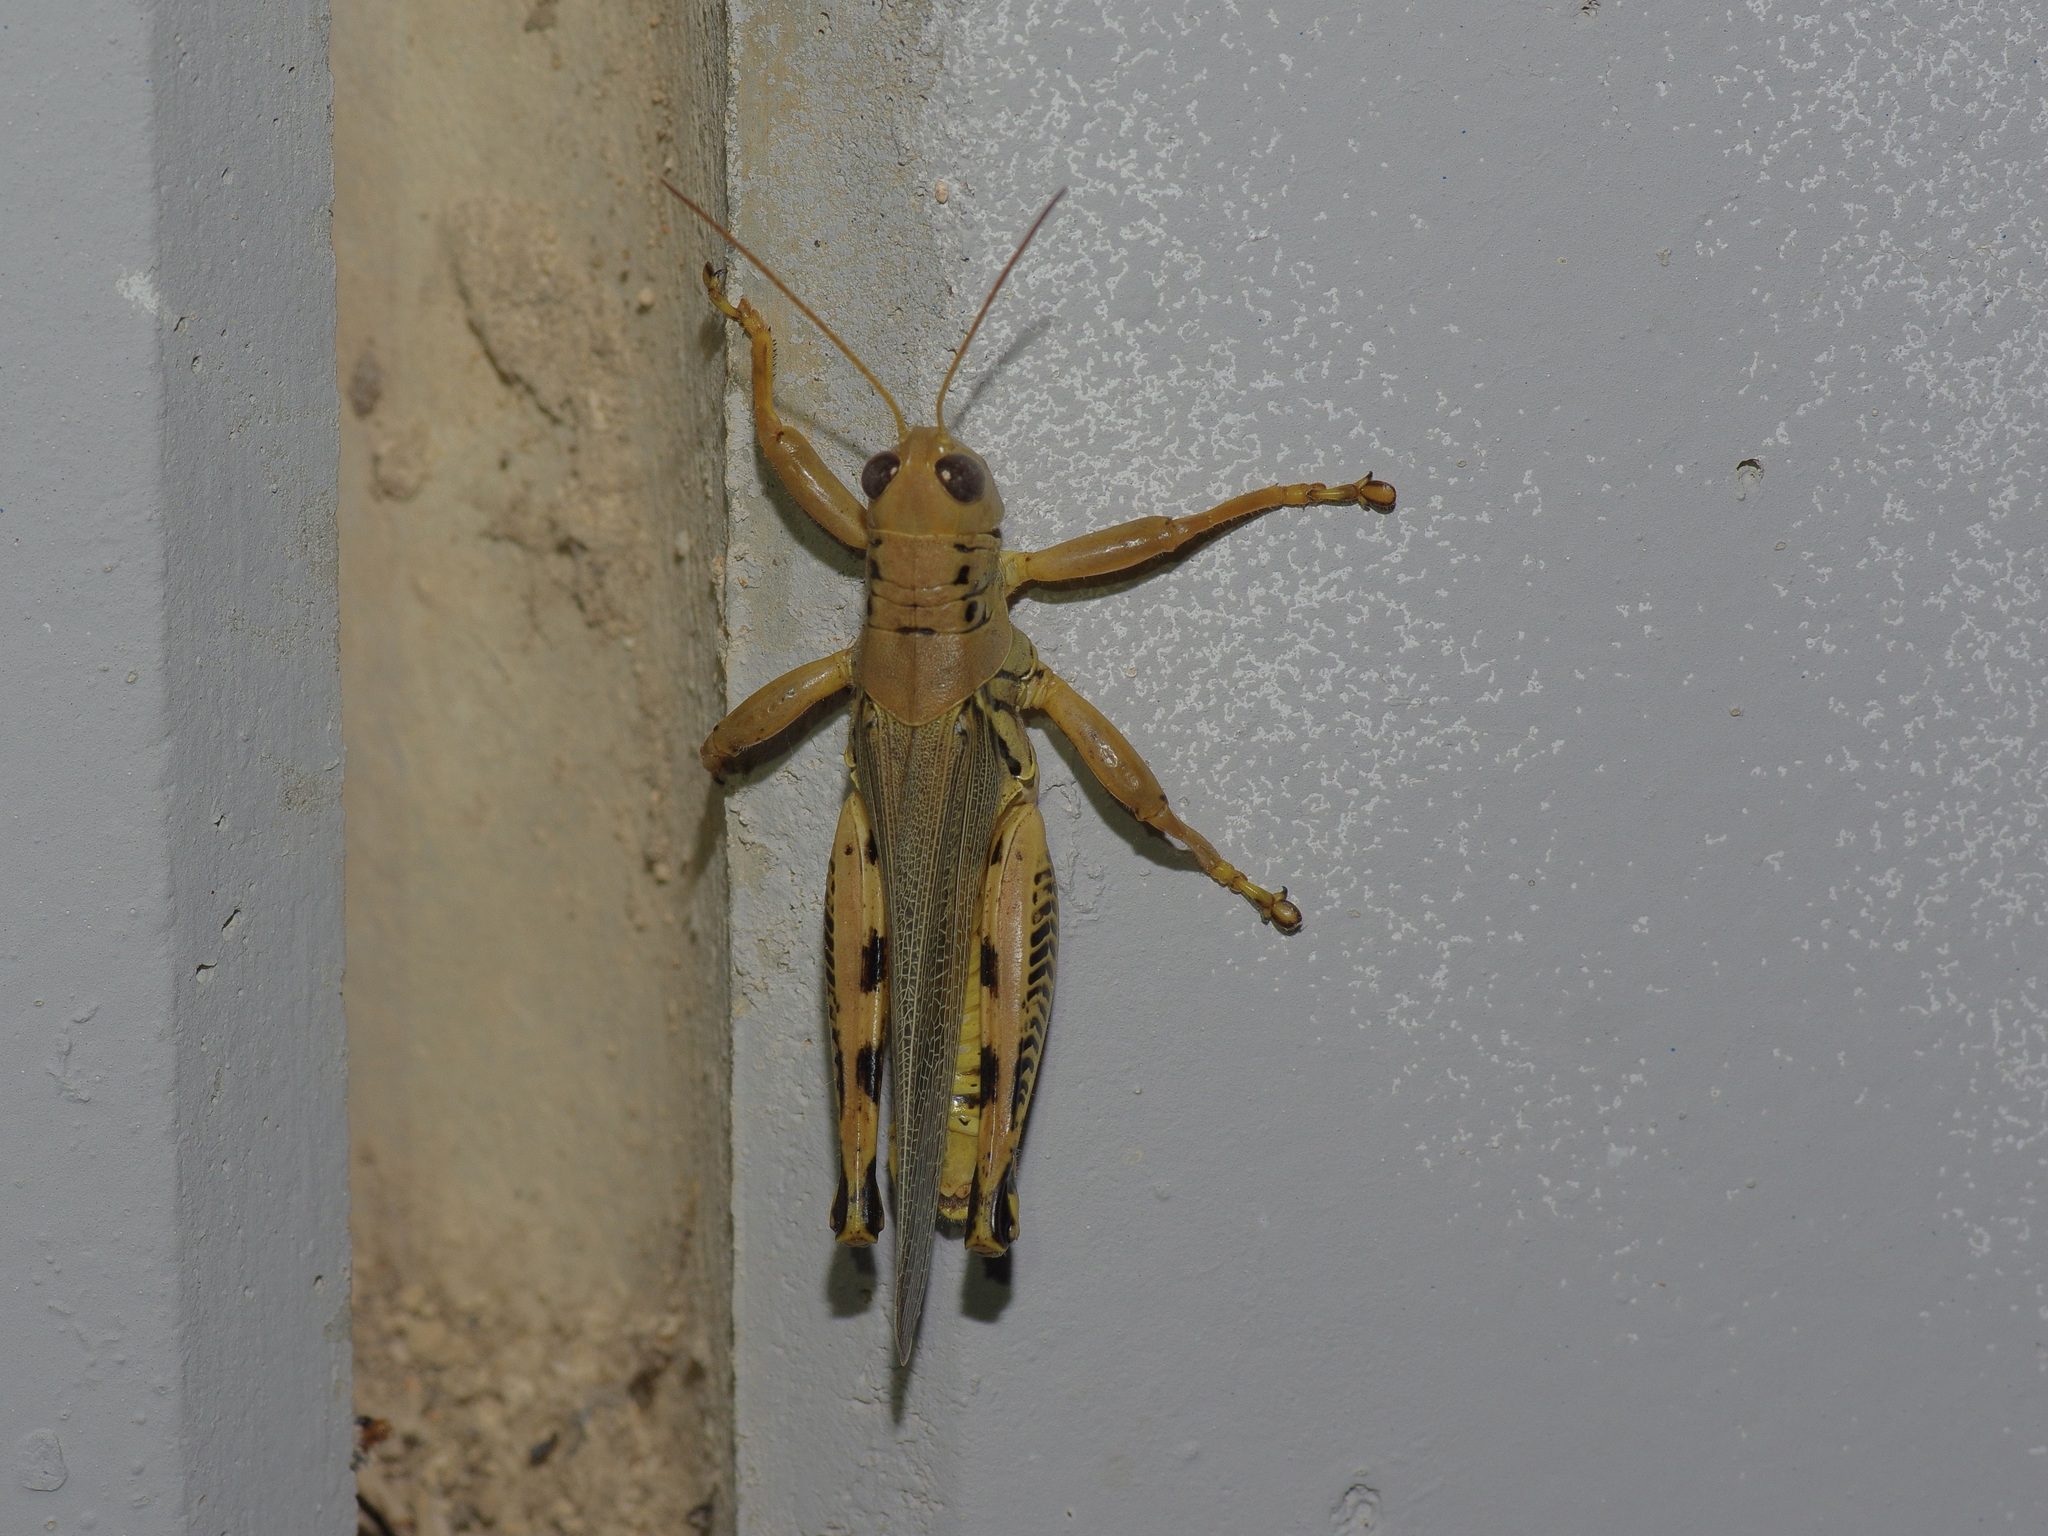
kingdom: Animalia
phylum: Arthropoda
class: Insecta
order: Orthoptera
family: Acrididae
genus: Melanoplus
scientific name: Melanoplus differentialis
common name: Differential grasshopper
